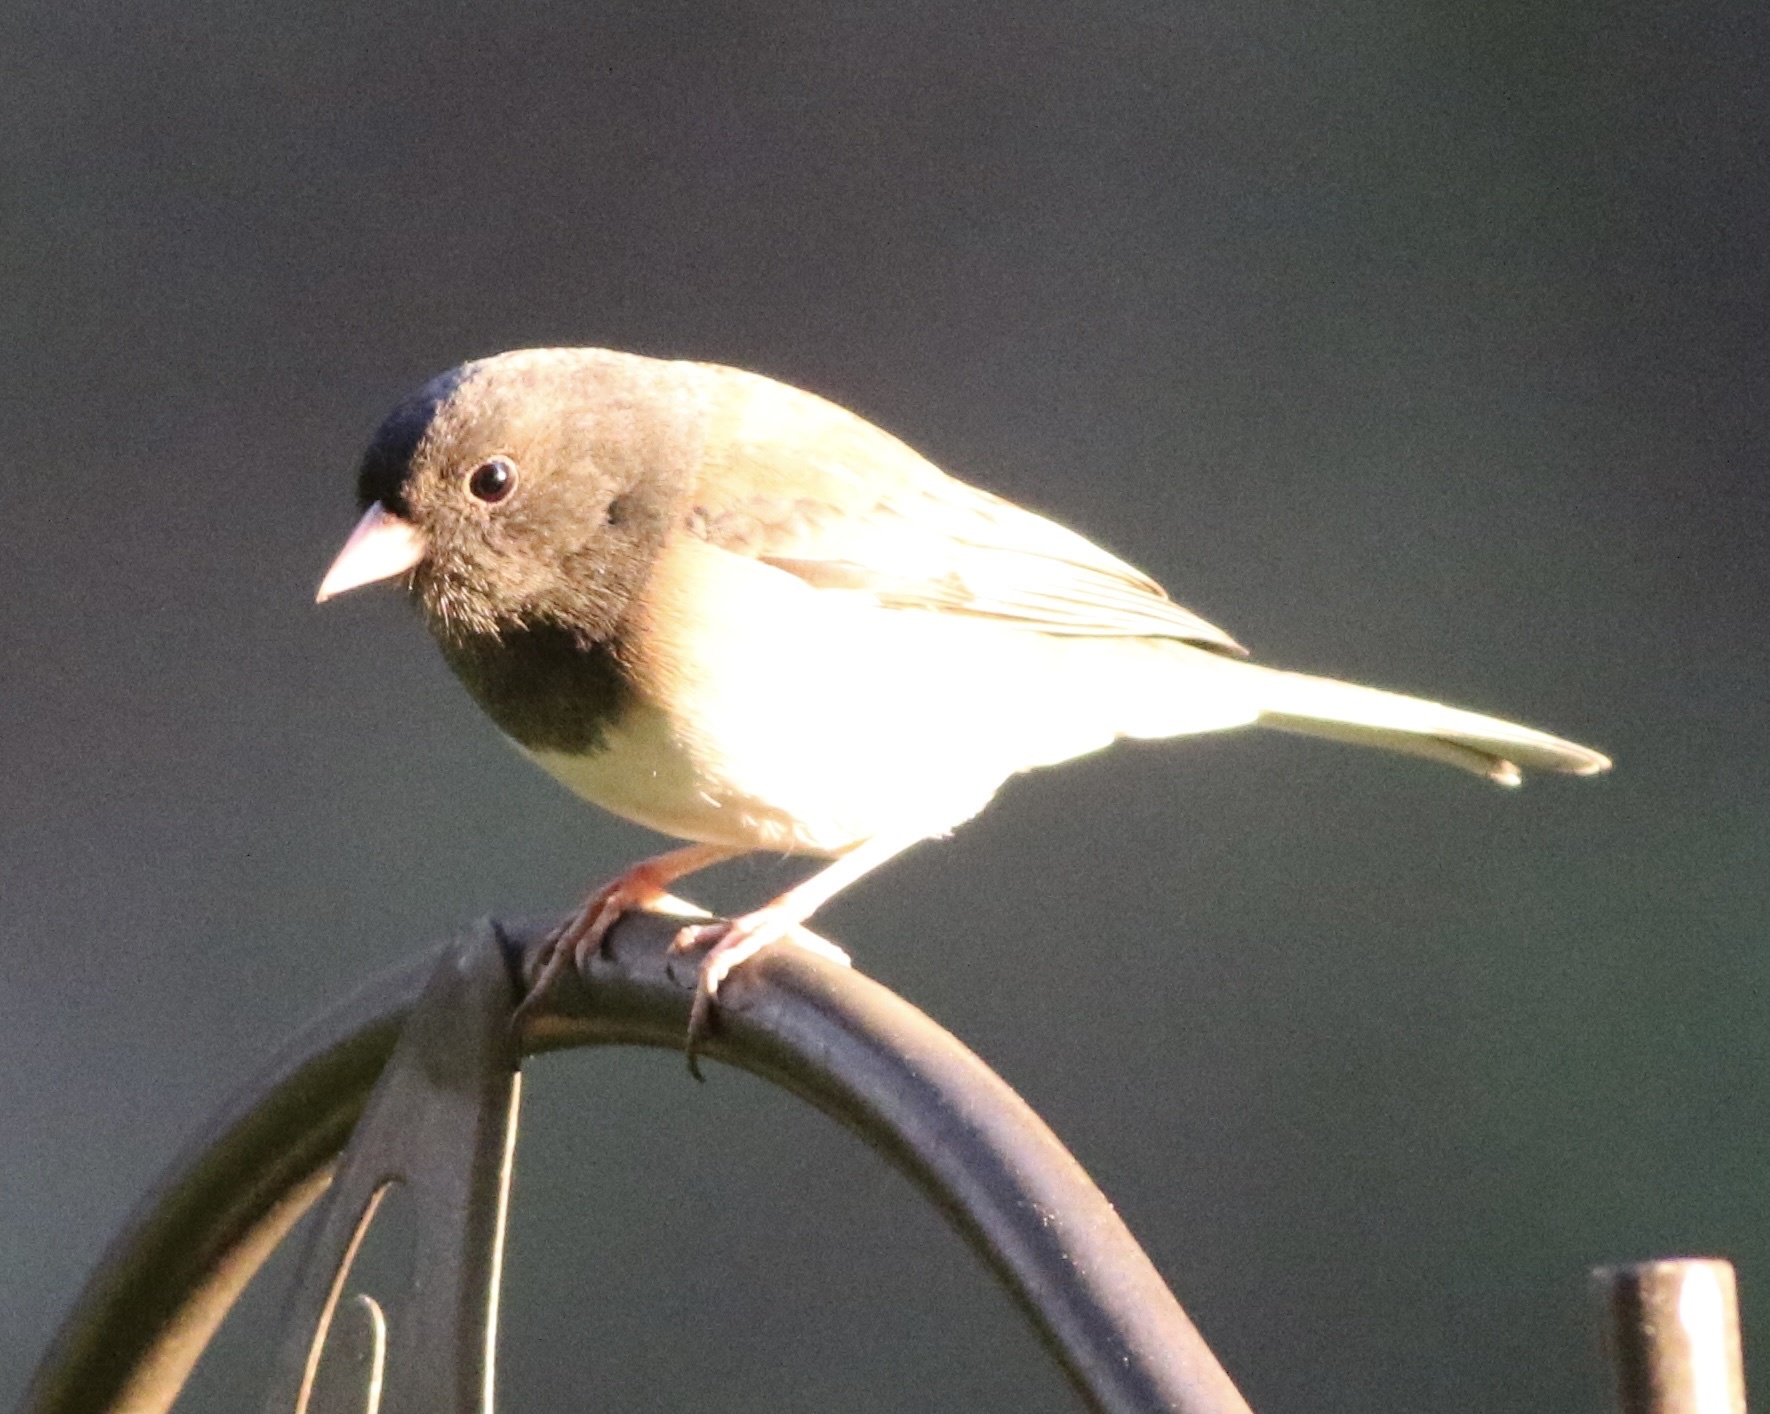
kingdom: Animalia
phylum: Chordata
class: Aves
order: Passeriformes
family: Passerellidae
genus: Junco
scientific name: Junco hyemalis
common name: Dark-eyed junco
